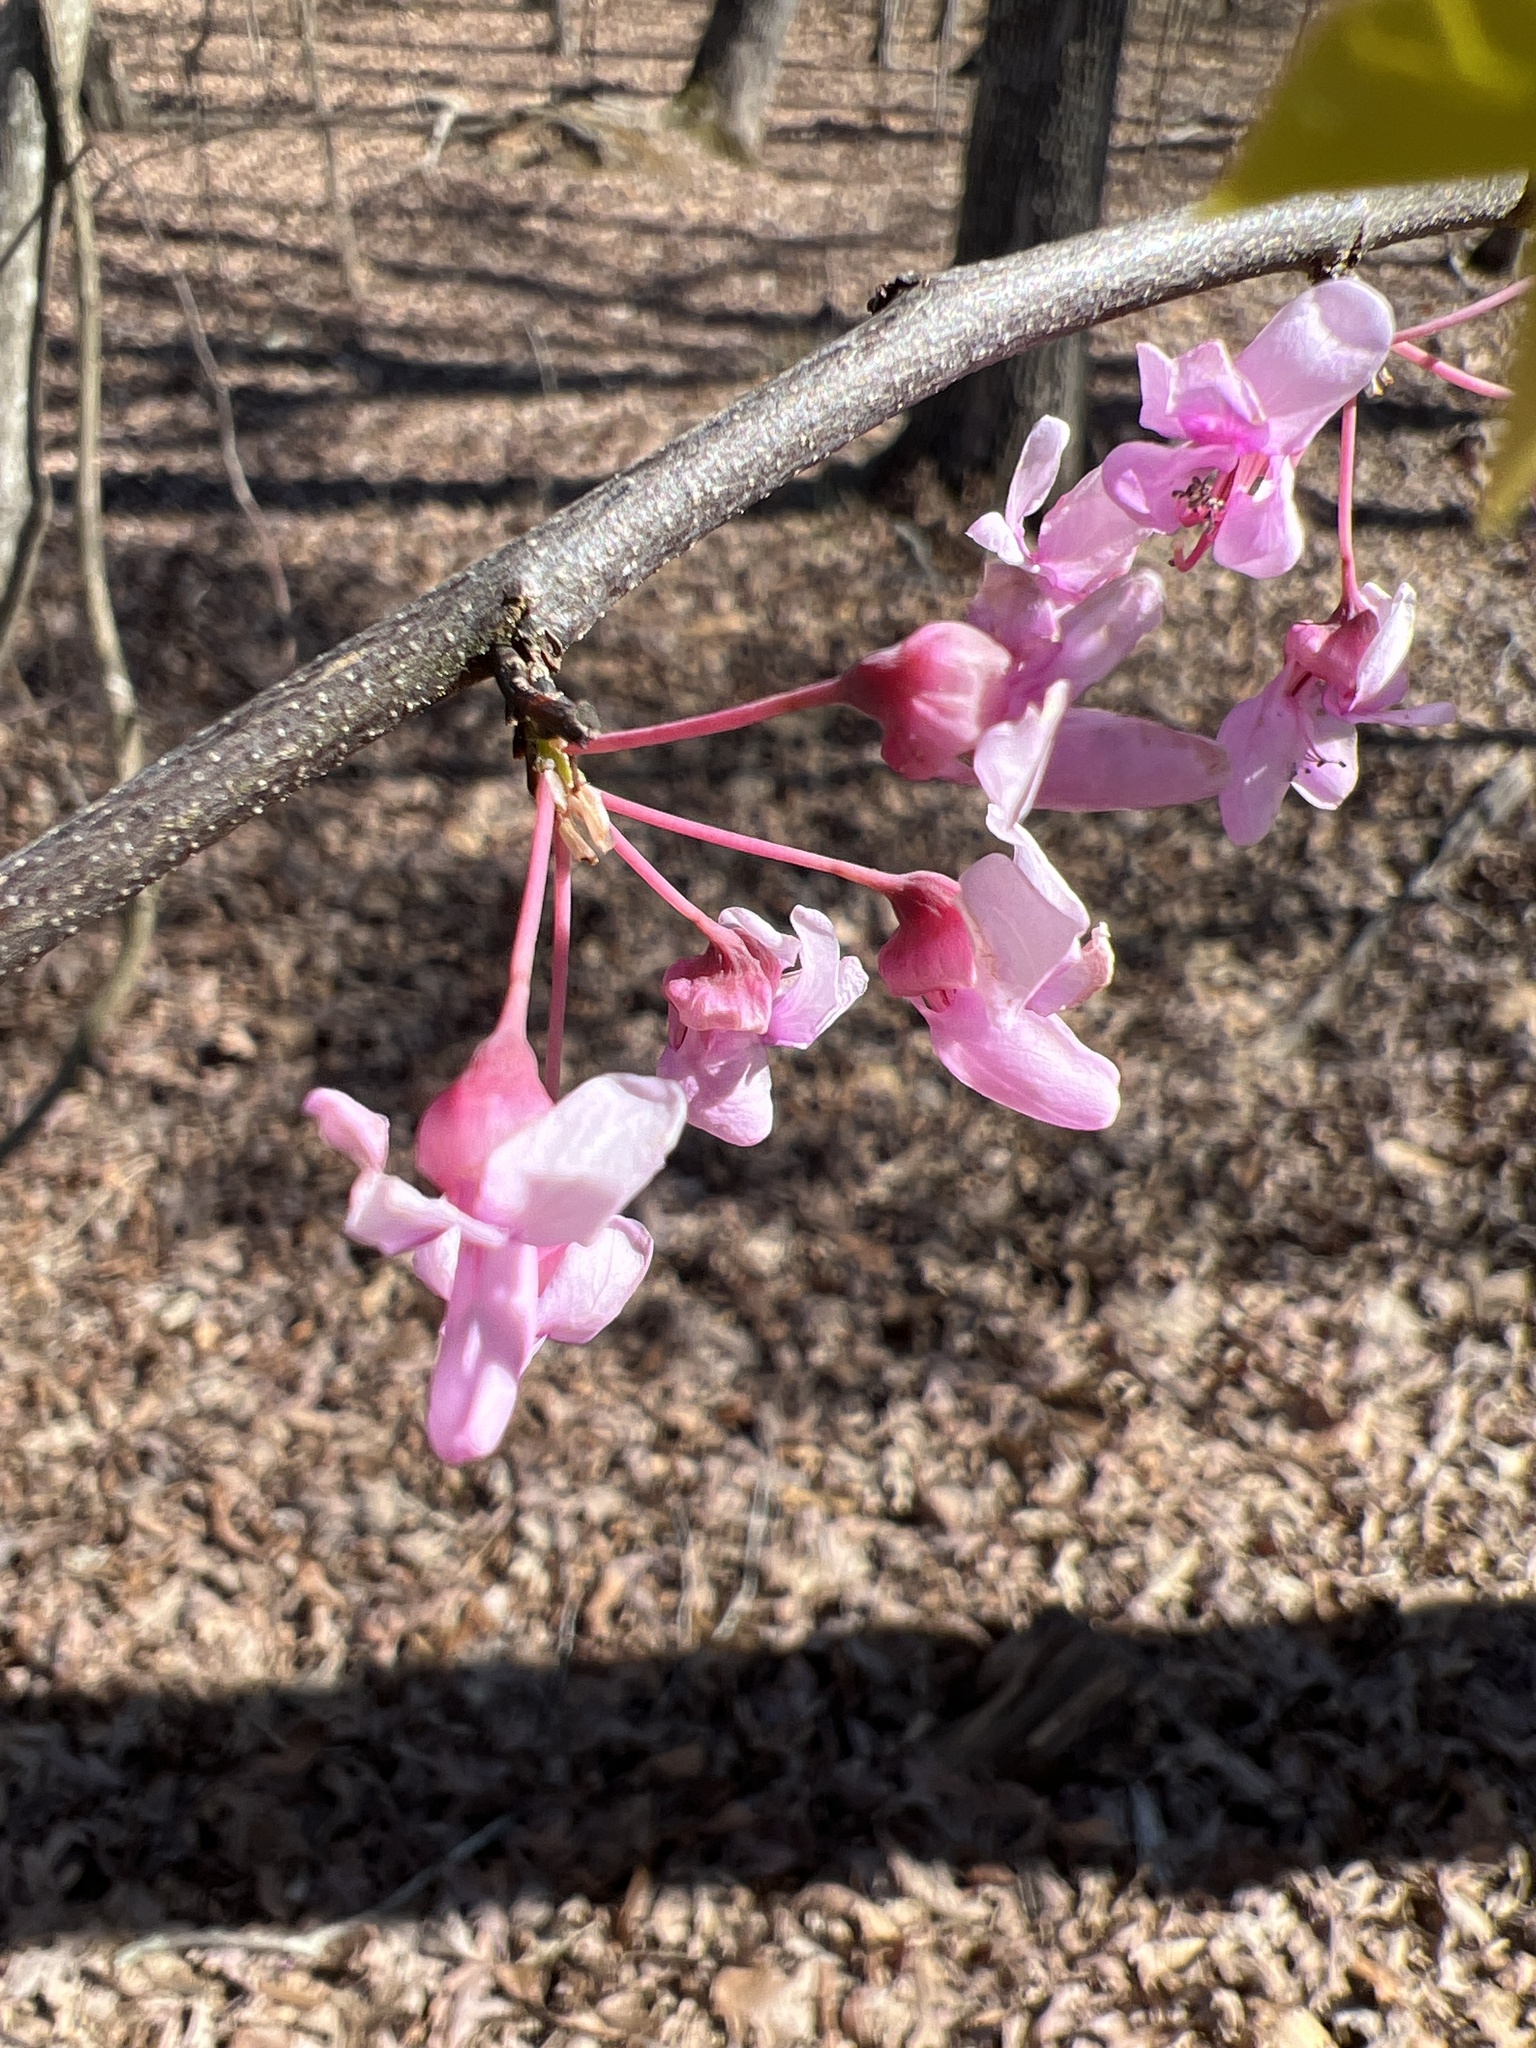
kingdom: Plantae
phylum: Tracheophyta
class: Magnoliopsida
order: Fabales
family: Fabaceae
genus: Cercis
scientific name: Cercis canadensis
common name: Eastern redbud
